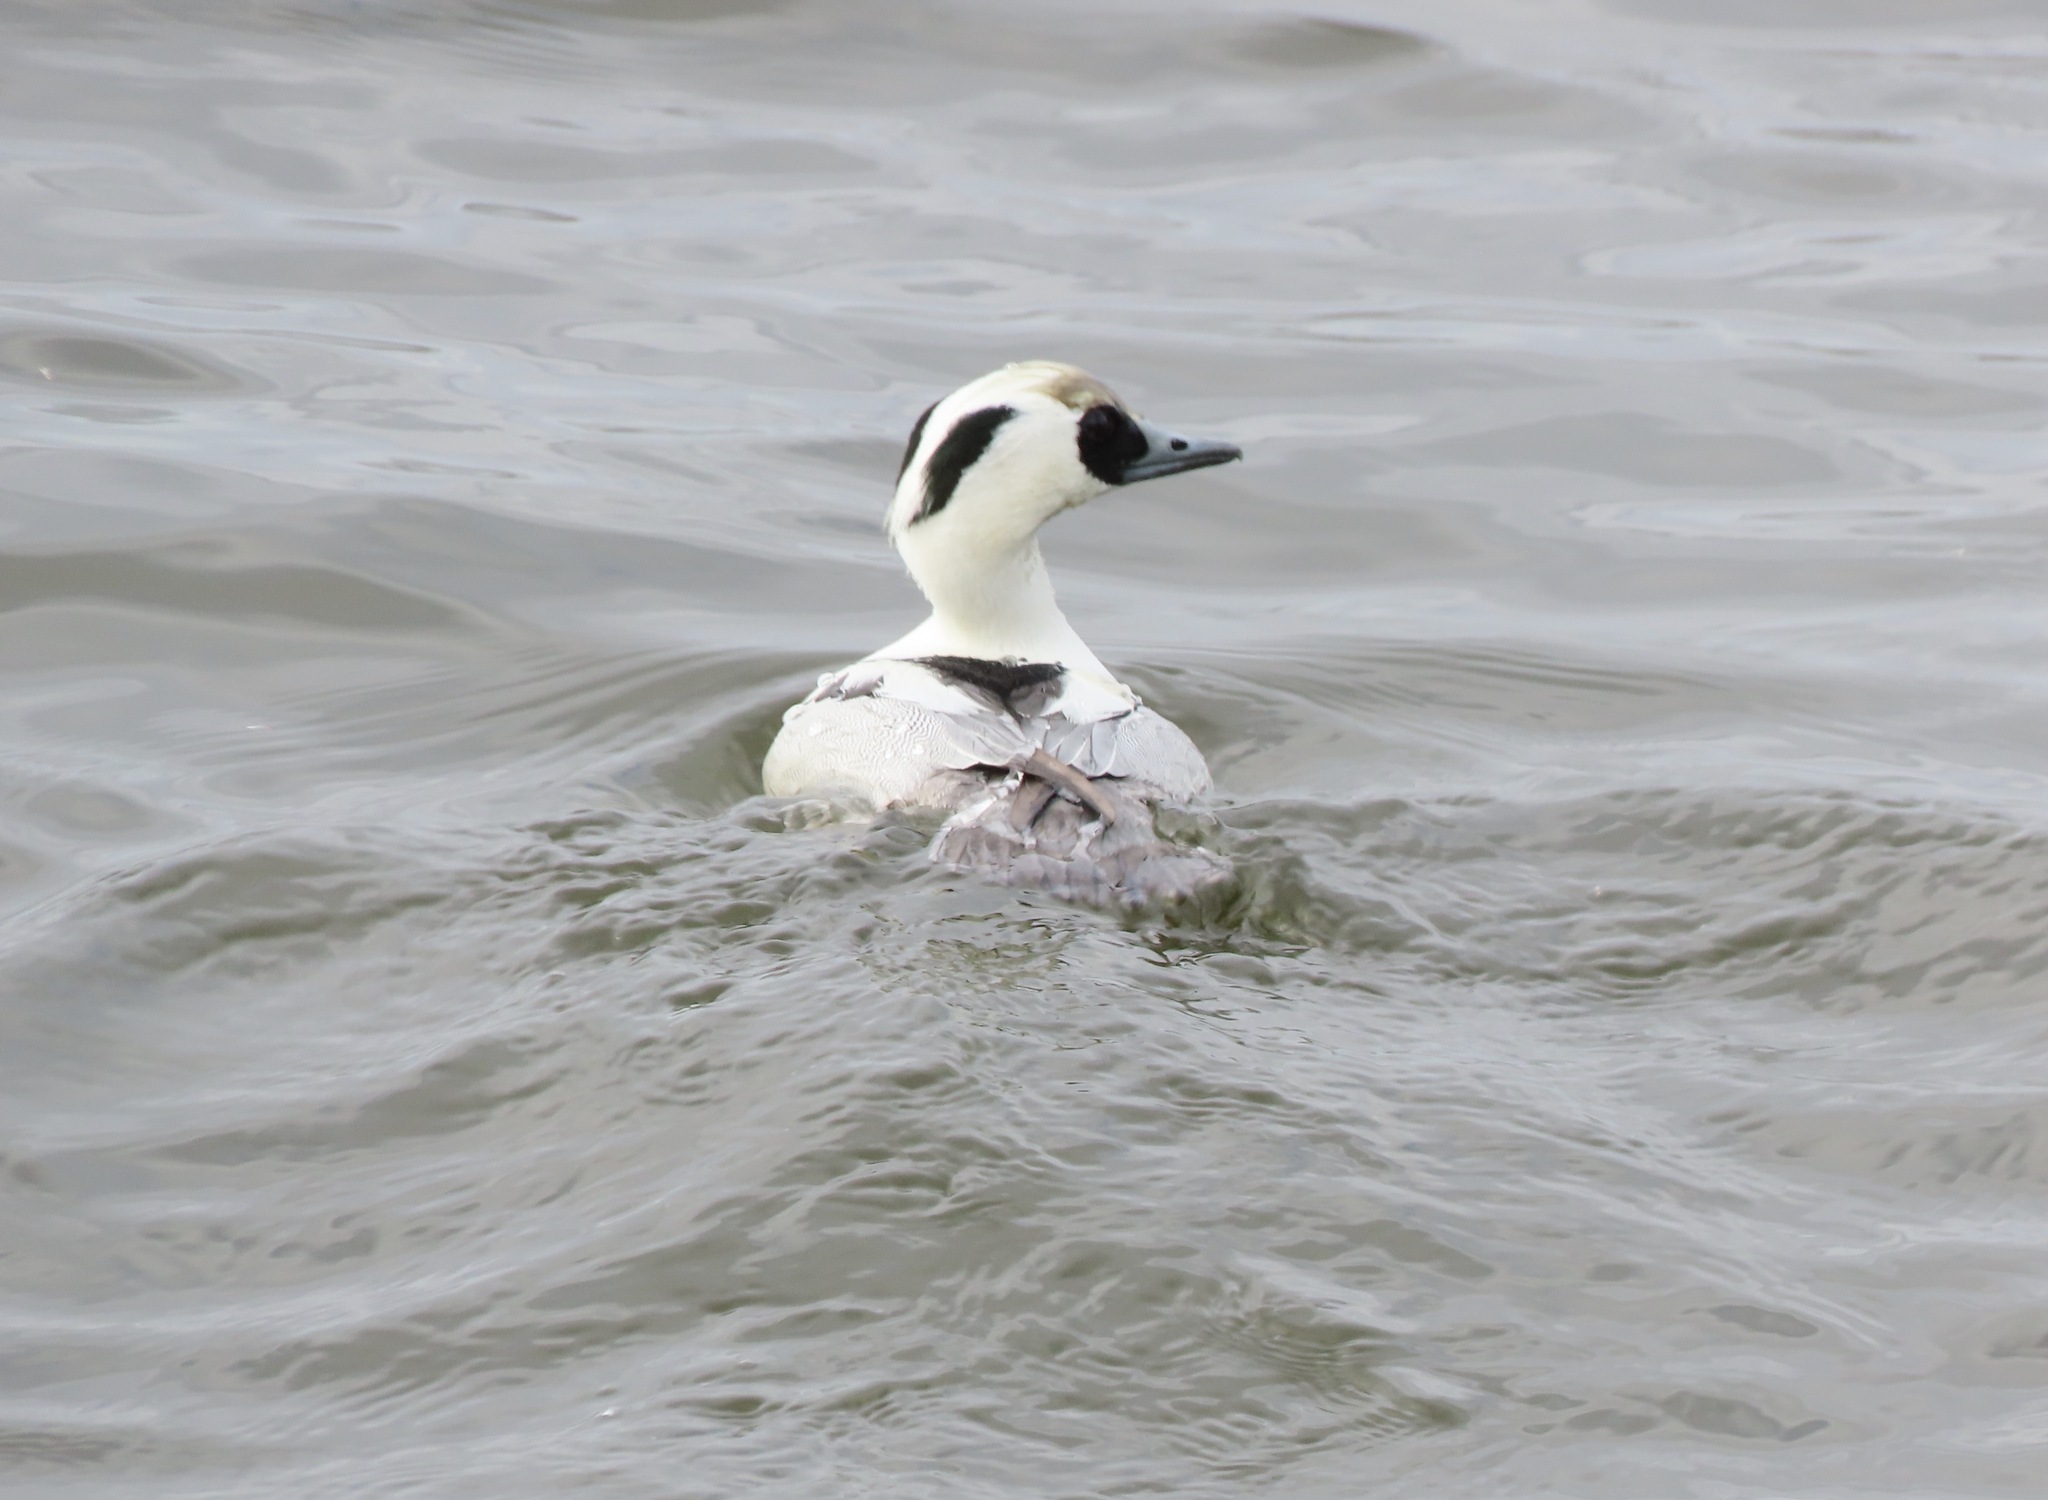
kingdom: Animalia
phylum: Chordata
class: Aves
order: Anseriformes
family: Anatidae
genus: Mergellus
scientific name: Mergellus albellus
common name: Smew
